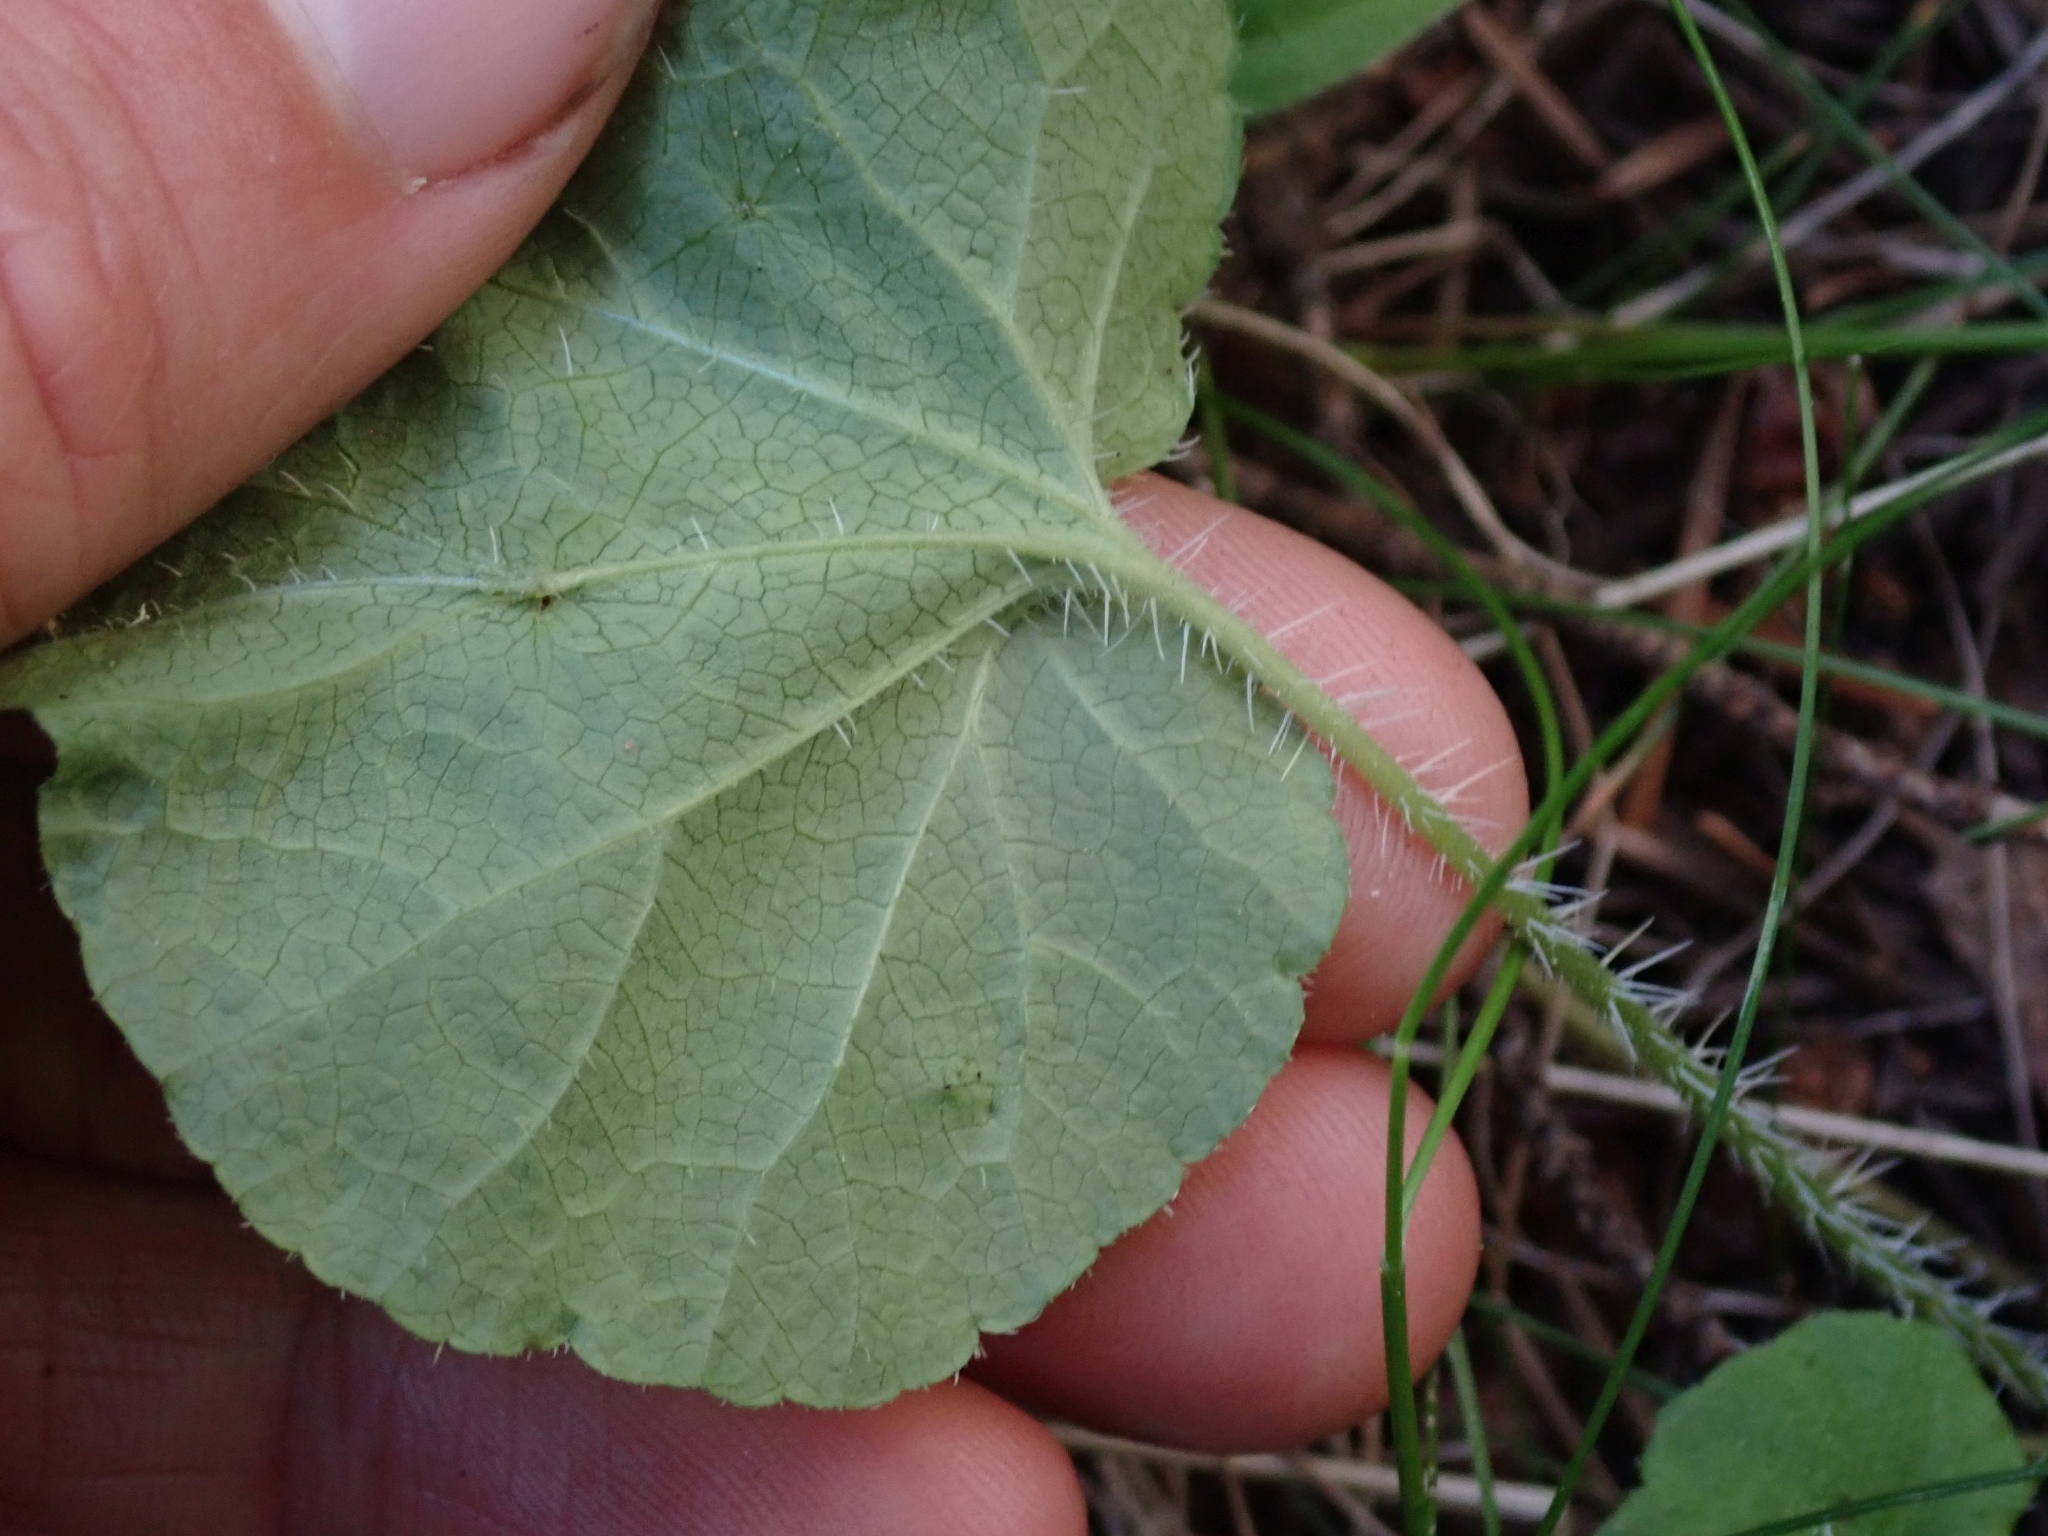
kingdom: Plantae
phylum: Tracheophyta
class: Magnoliopsida
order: Saxifragales
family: Saxifragaceae
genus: Ozomelis
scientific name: Ozomelis trifida
